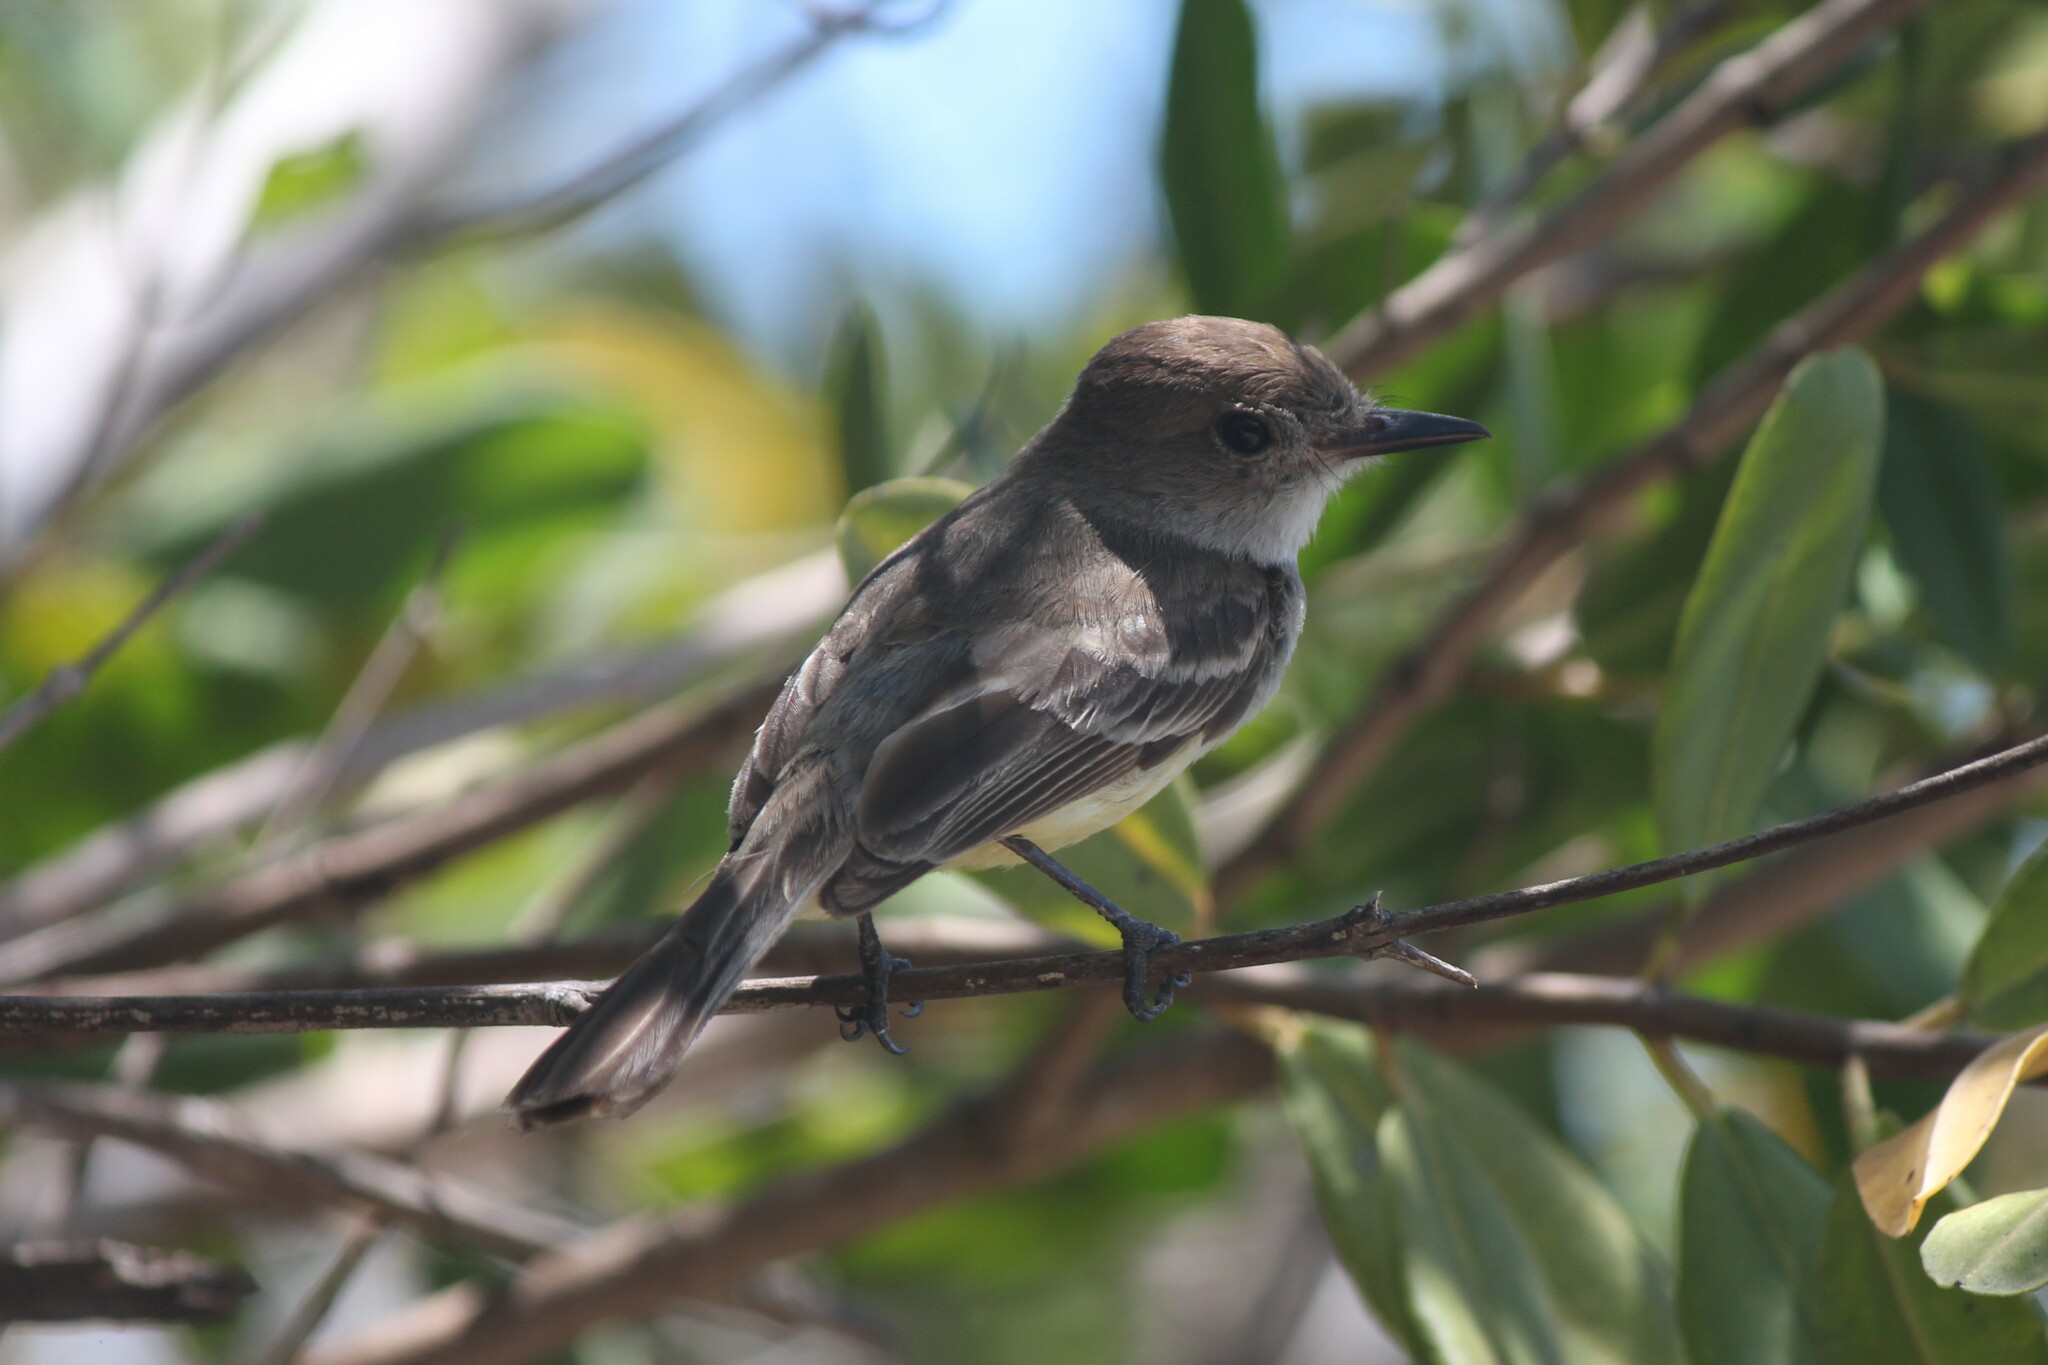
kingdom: Animalia
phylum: Chordata
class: Aves
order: Passeriformes
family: Tyrannidae
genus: Myiarchus
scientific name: Myiarchus magnirostris
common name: Galapagos flycatcher
